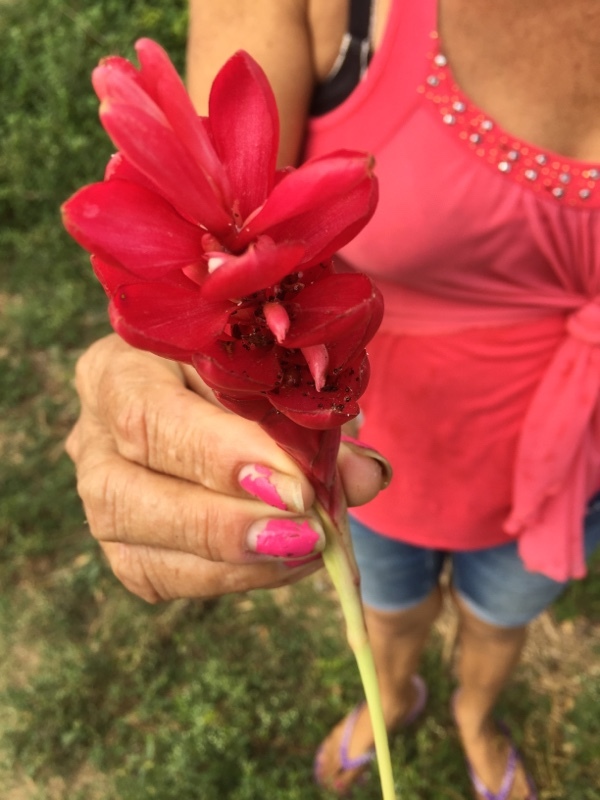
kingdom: Plantae
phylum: Tracheophyta
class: Liliopsida
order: Zingiberales
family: Zingiberaceae
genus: Alpinia
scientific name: Alpinia purpurata
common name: Red ginger
